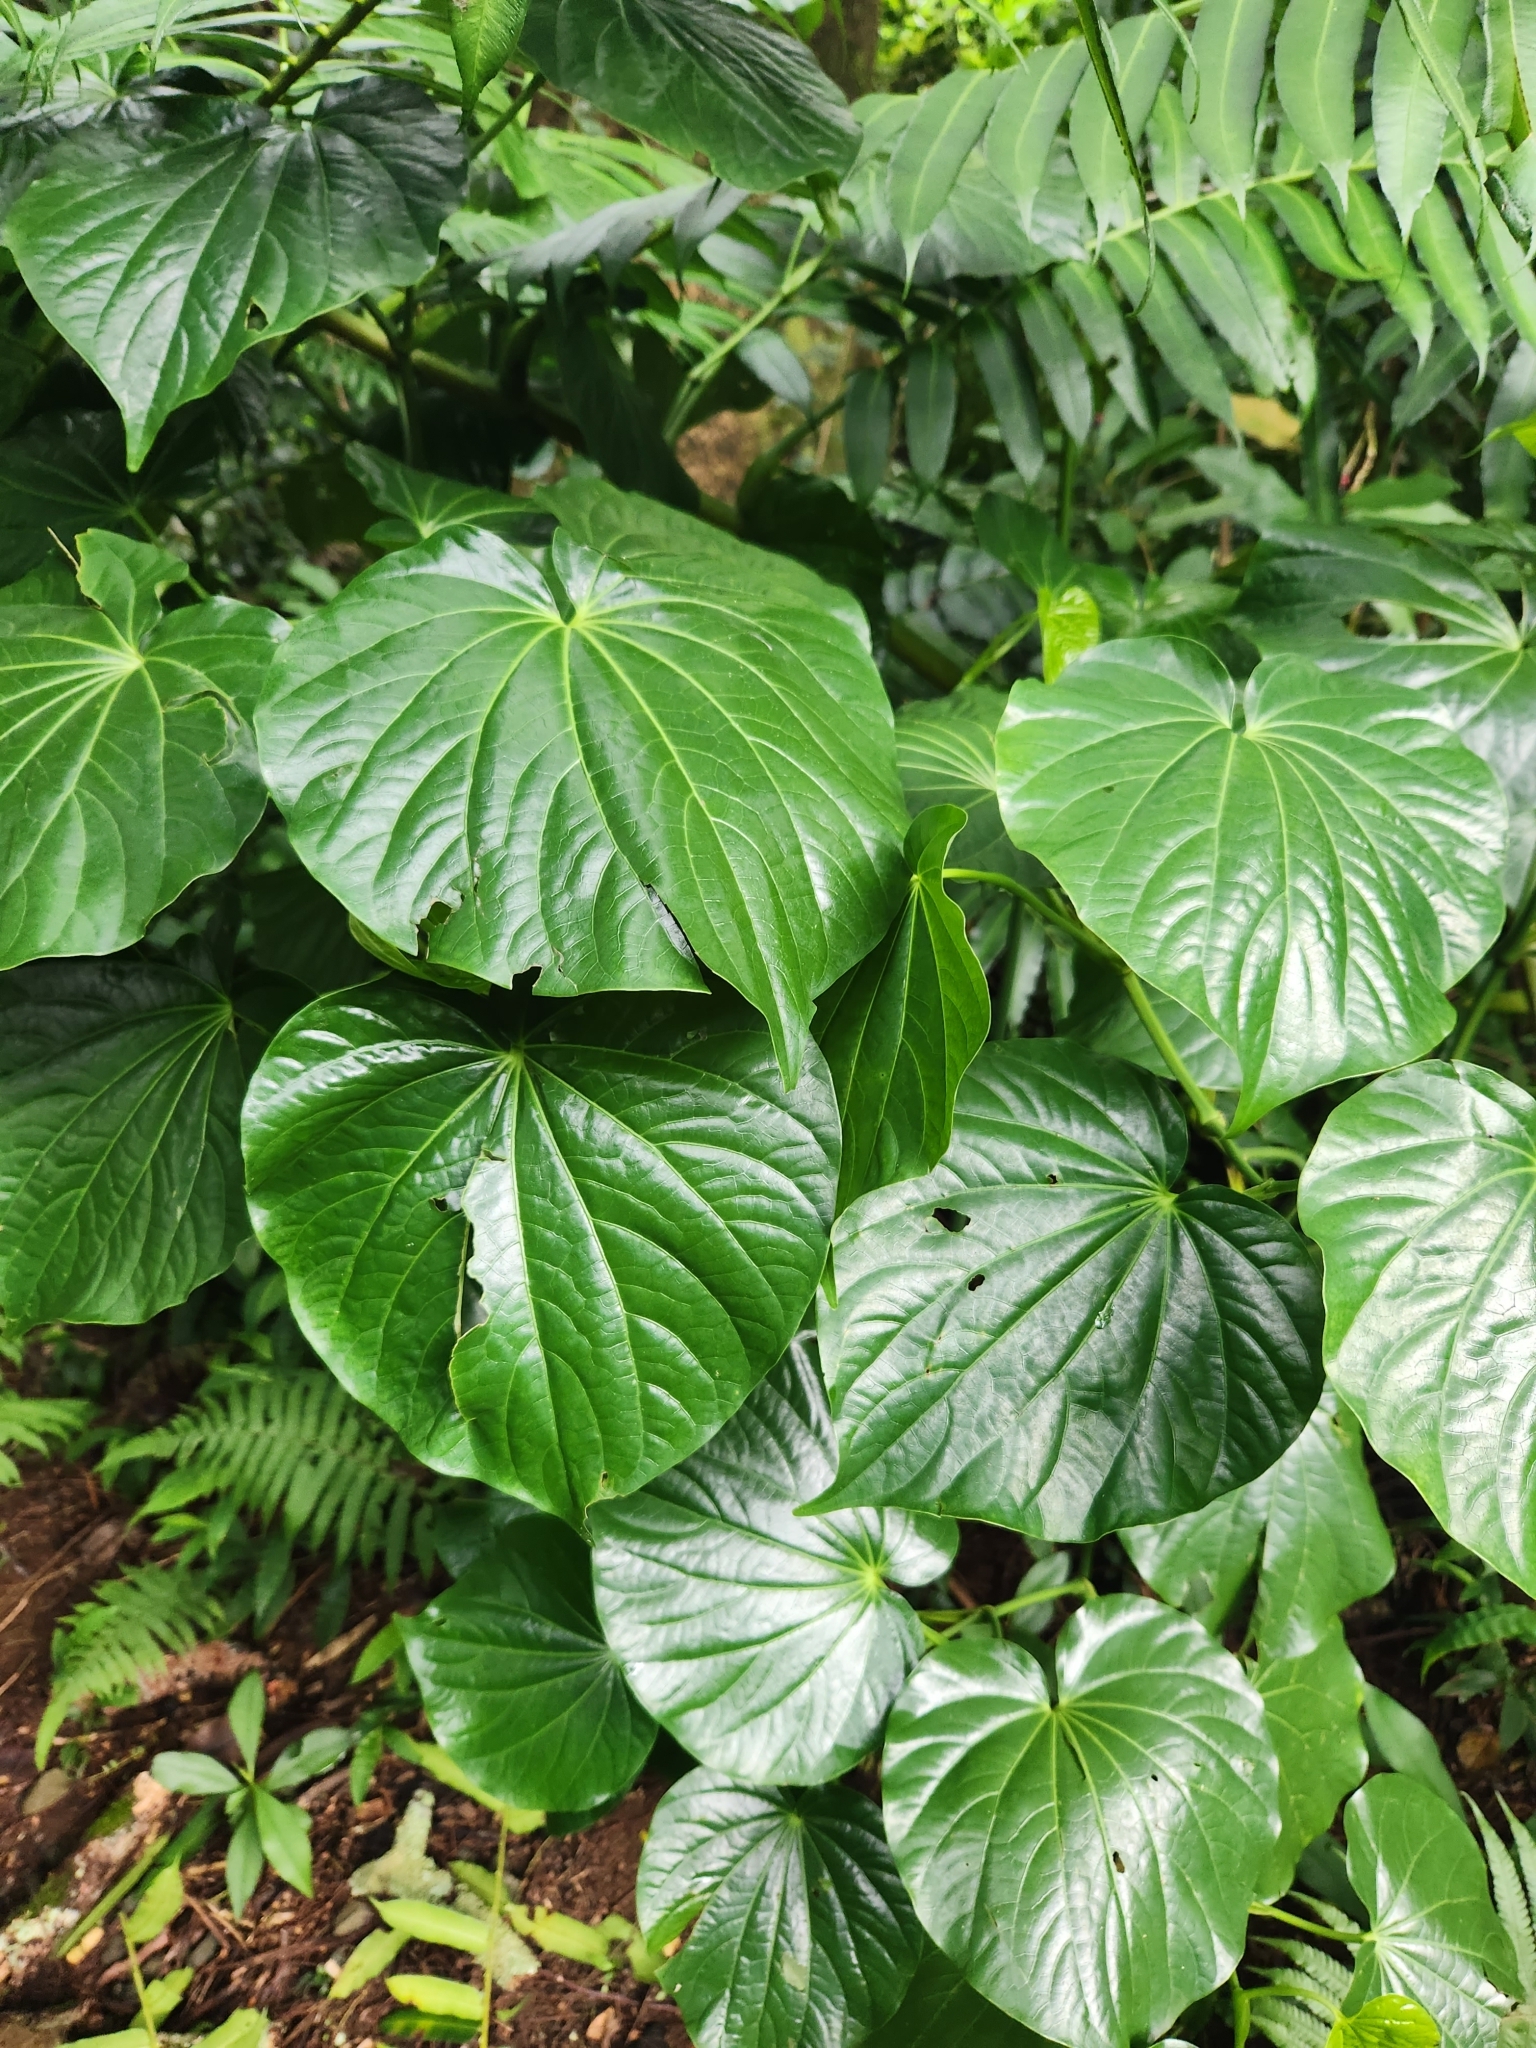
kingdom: Plantae
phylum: Tracheophyta
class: Magnoliopsida
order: Piperales
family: Piperaceae
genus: Piper
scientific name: Piper latifolium
